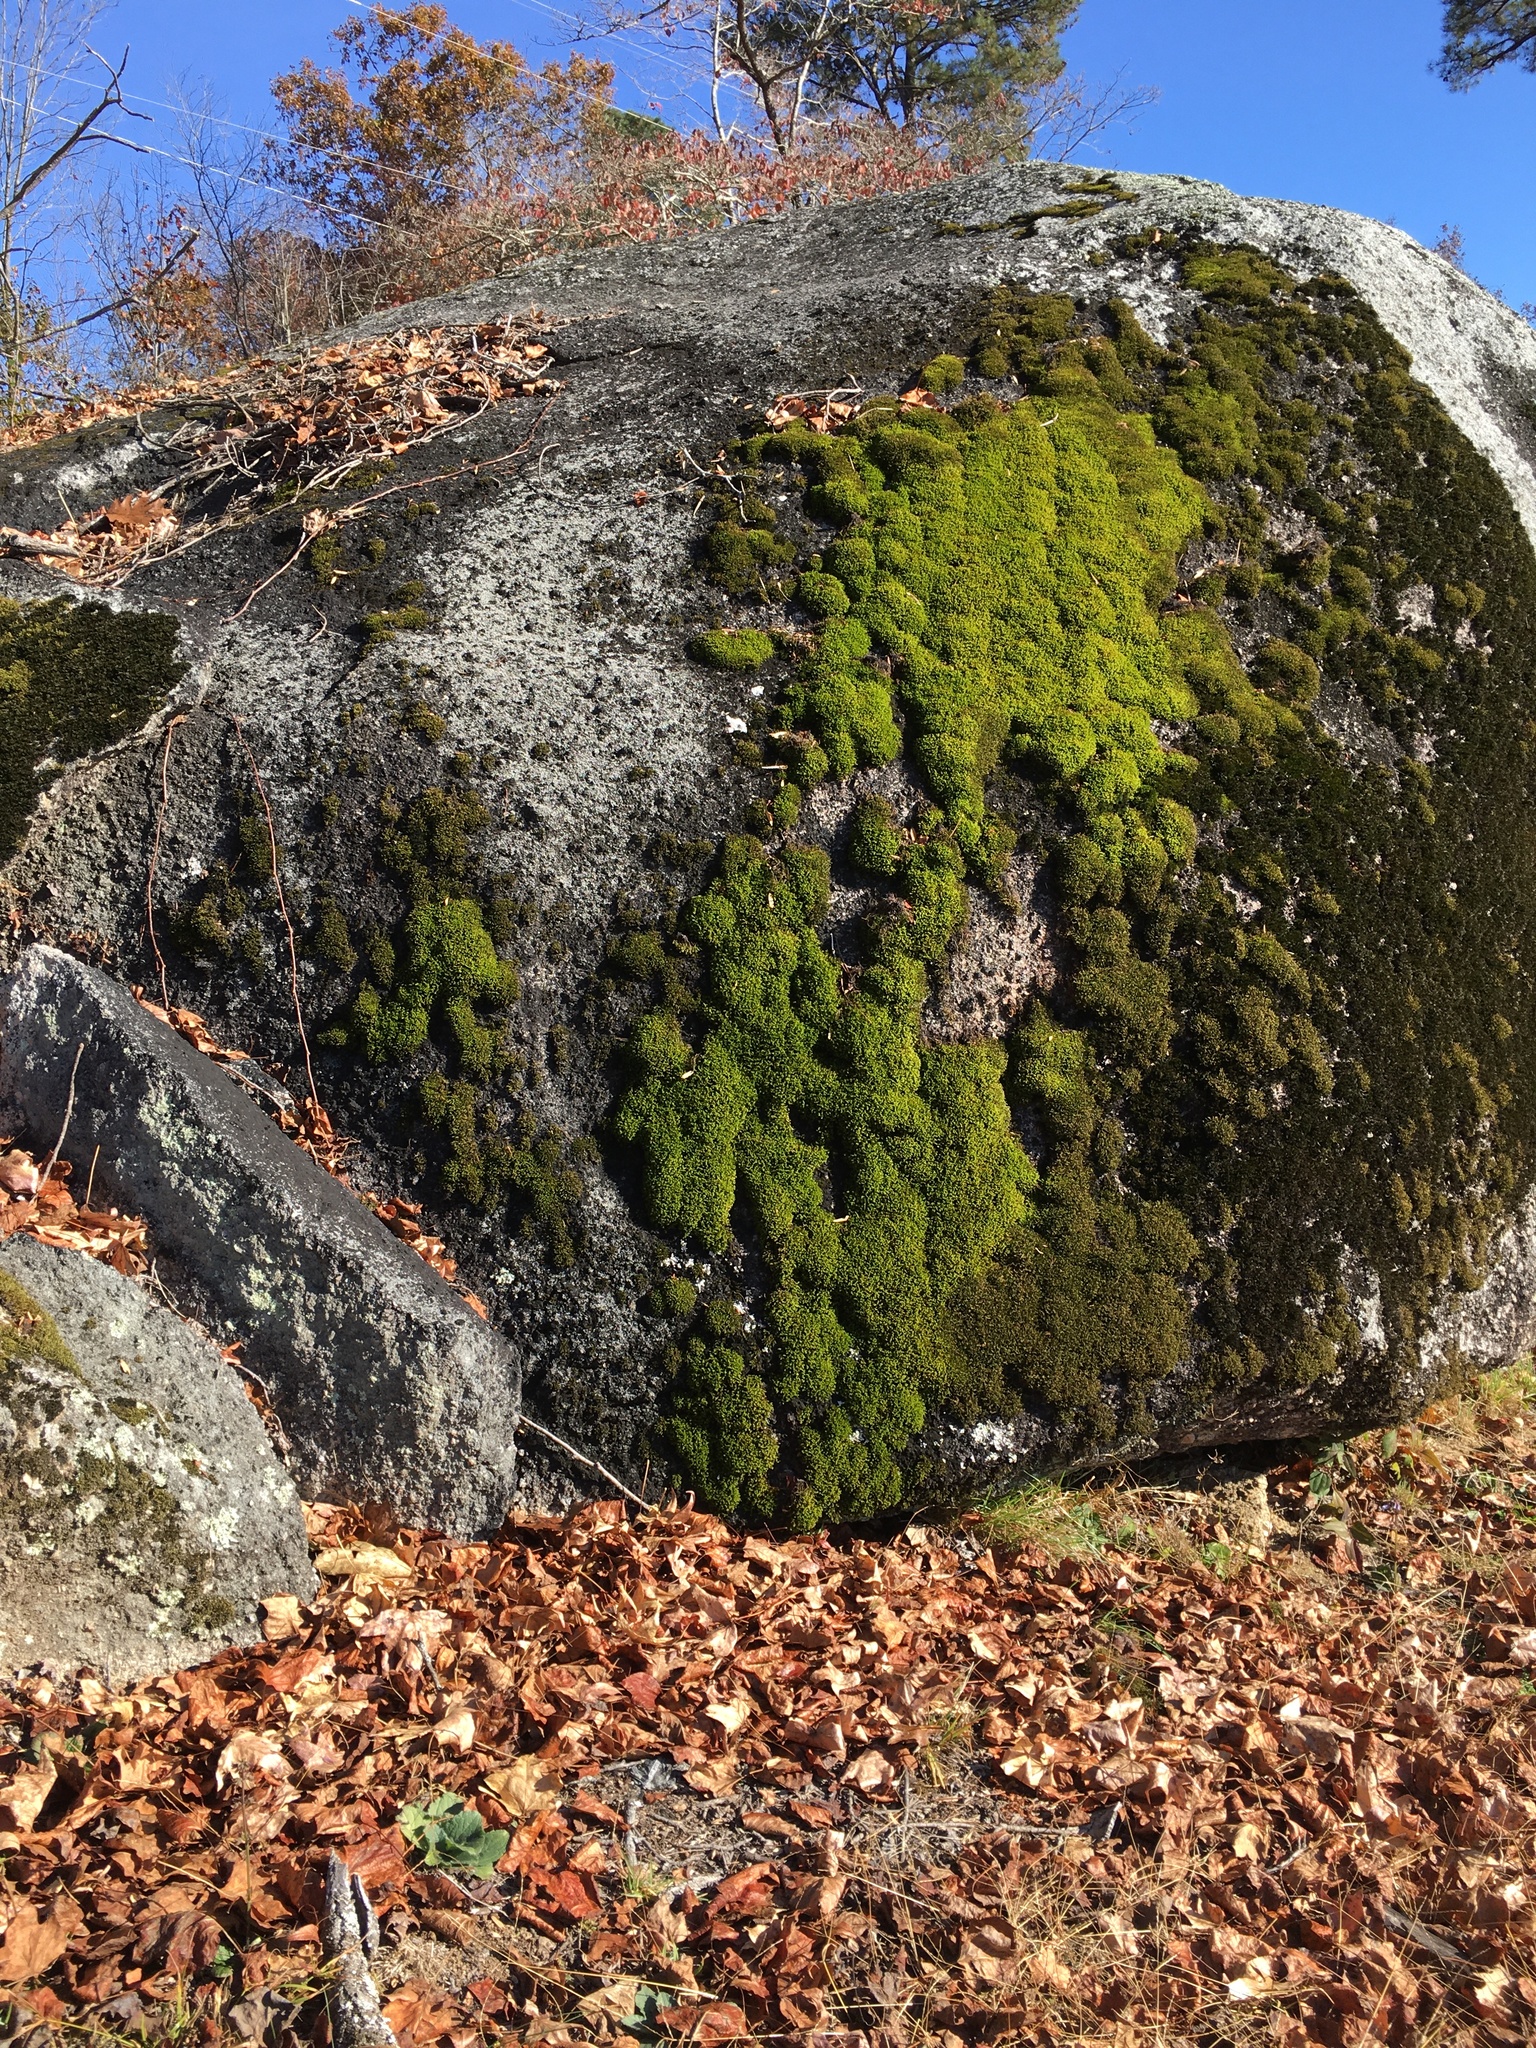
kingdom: Plantae
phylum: Bryophyta
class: Bryopsida
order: Hedwigiales
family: Hedwigiaceae
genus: Hedwigia
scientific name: Hedwigia ciliata
